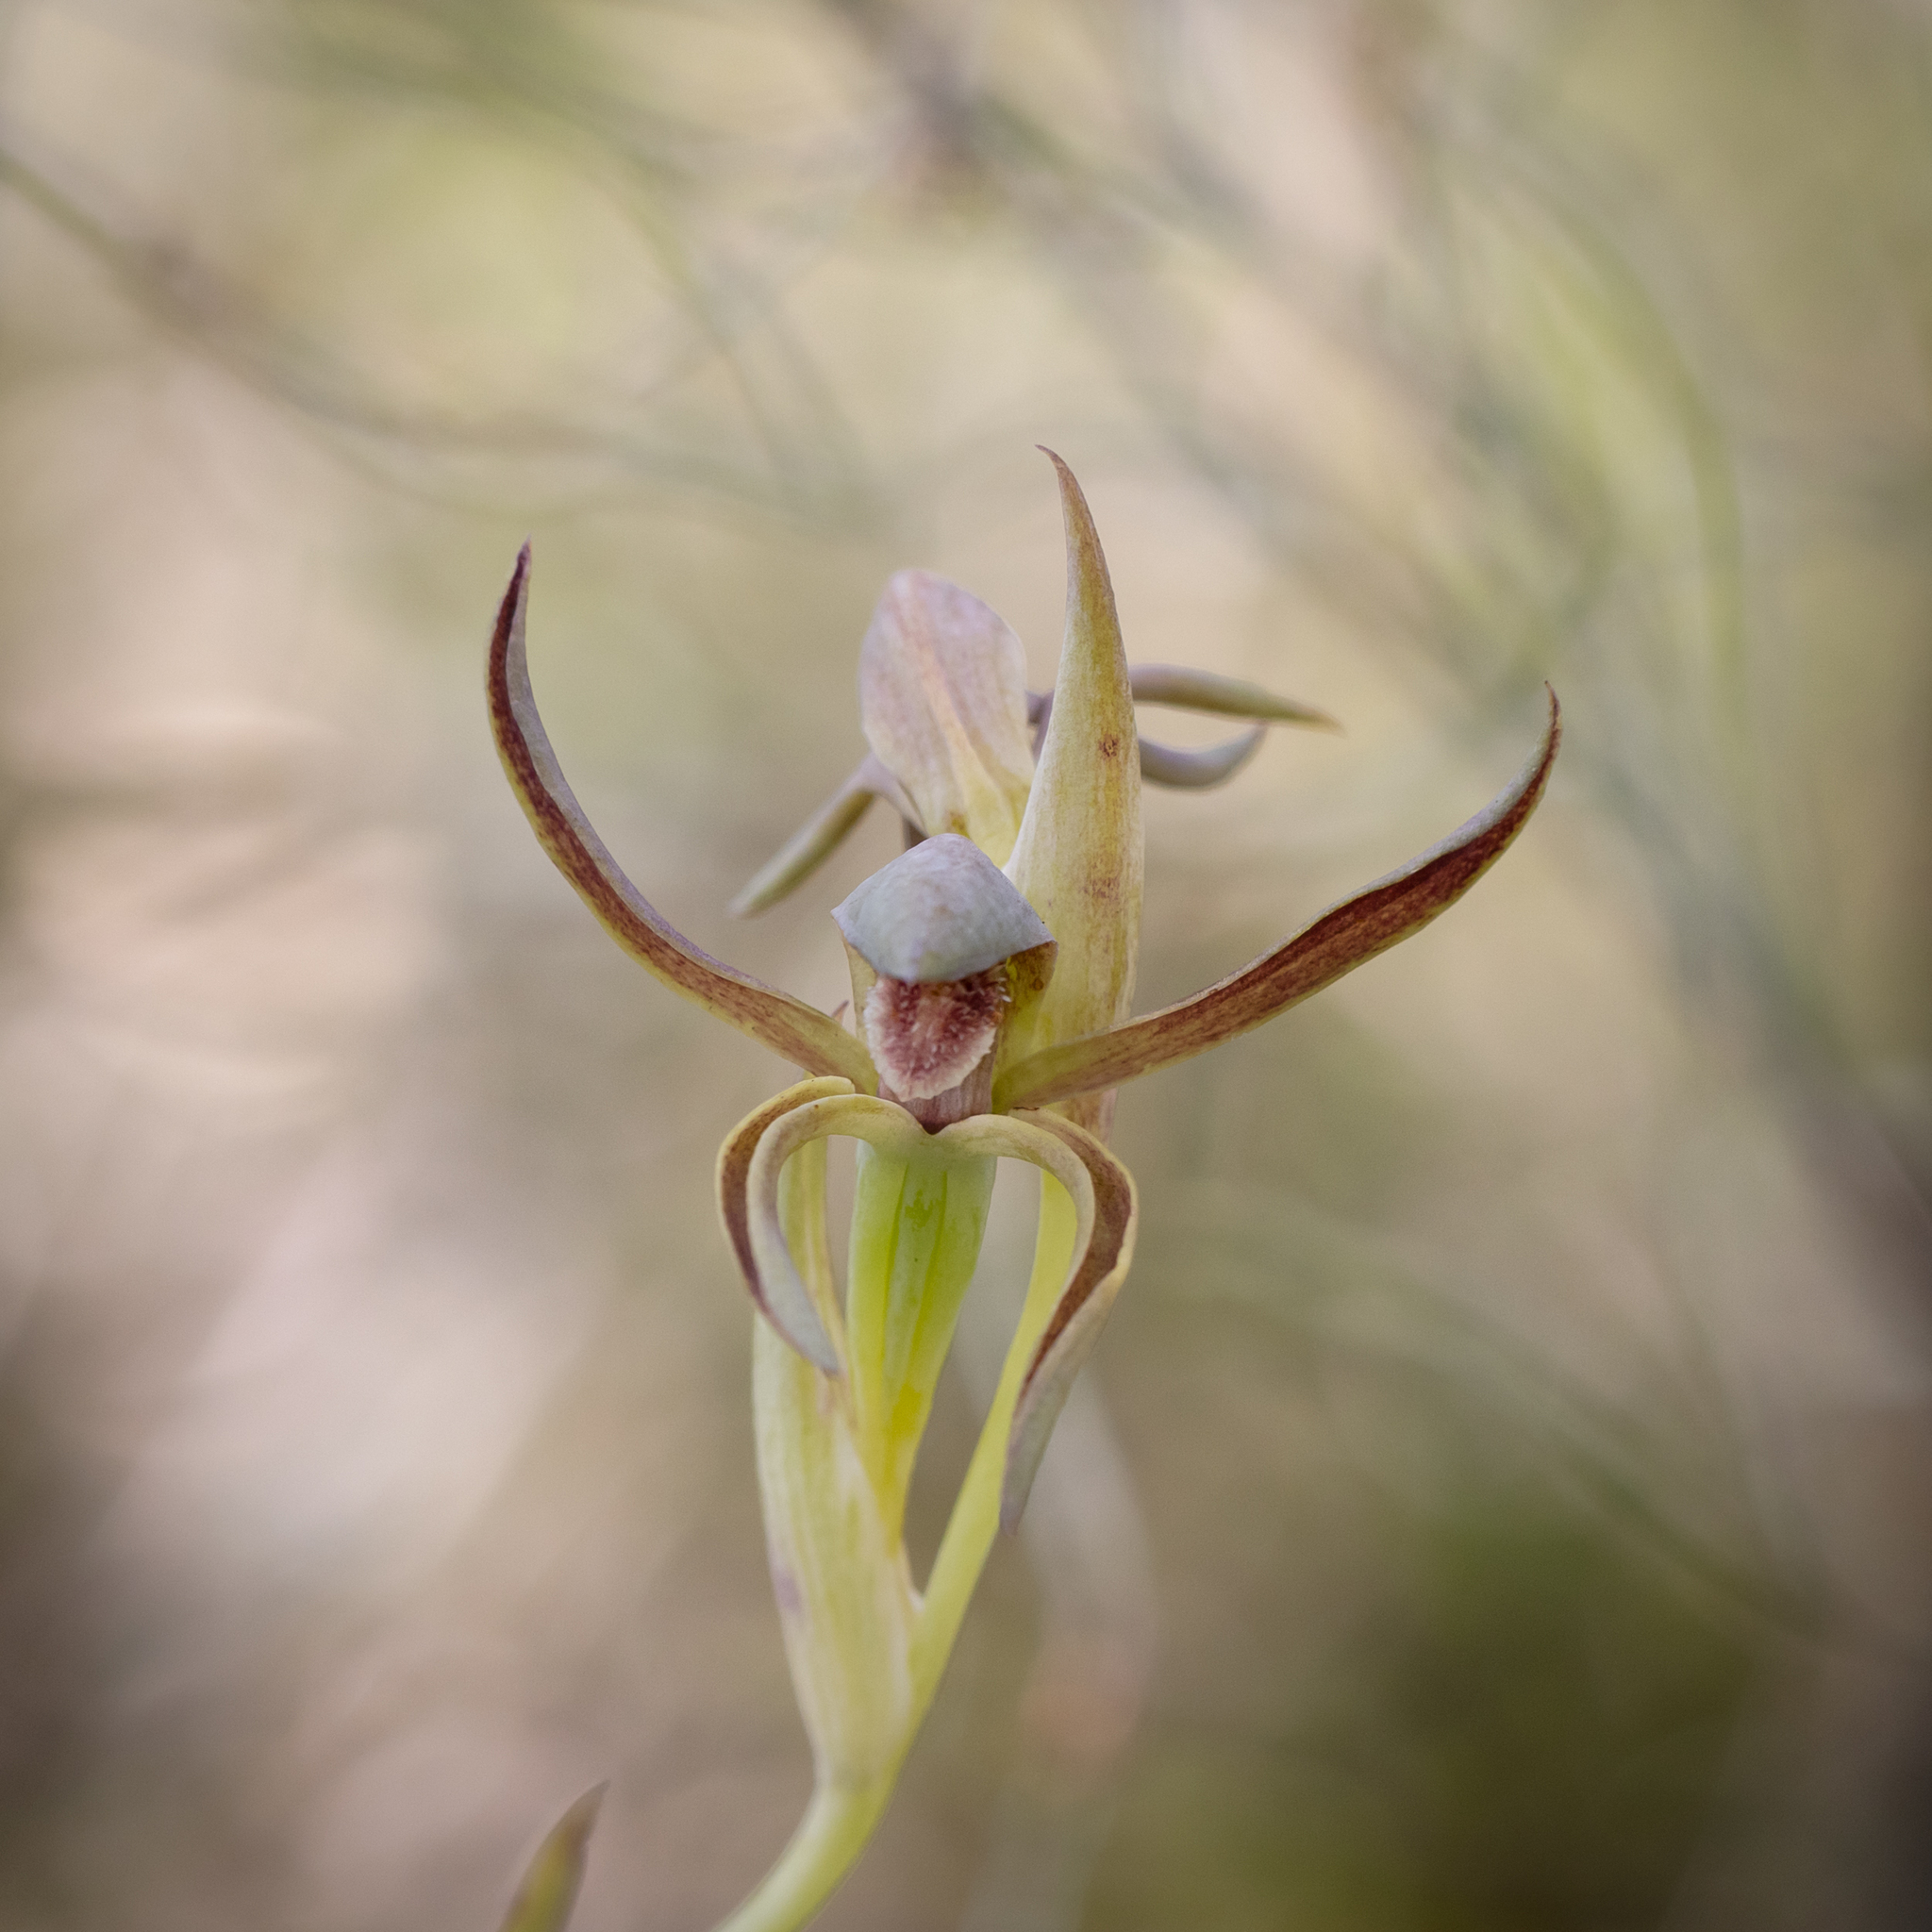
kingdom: Plantae
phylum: Tracheophyta
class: Liliopsida
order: Asparagales
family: Orchidaceae
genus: Lyperanthus
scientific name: Lyperanthus serratus
